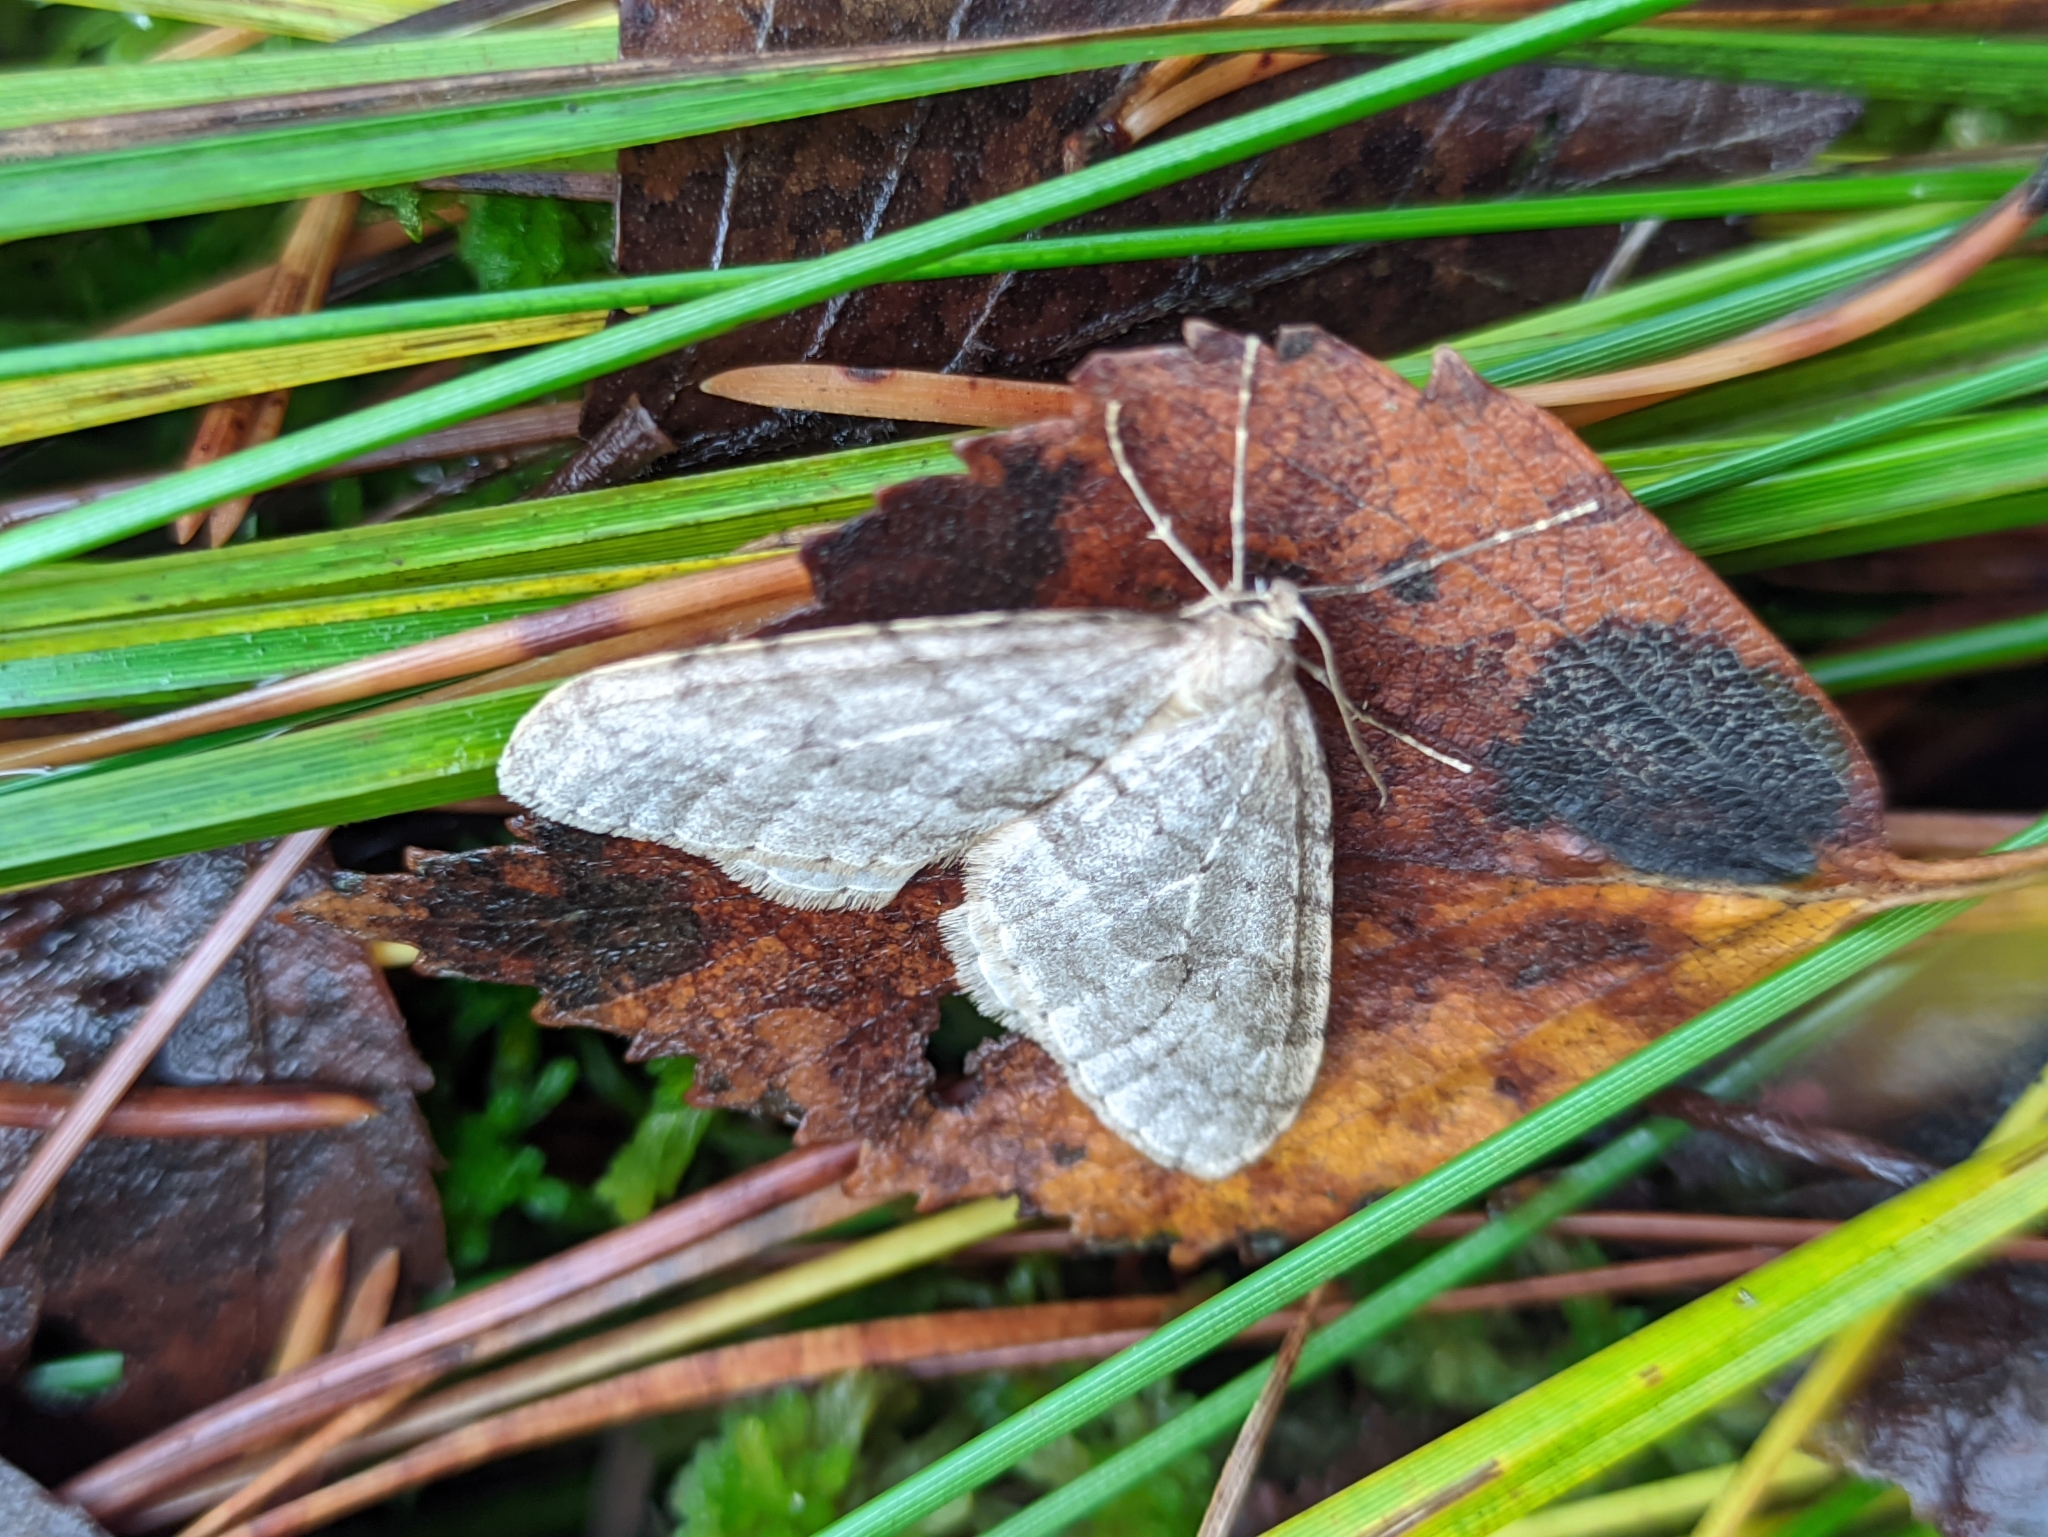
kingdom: Animalia
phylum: Arthropoda
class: Insecta
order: Lepidoptera
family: Geometridae
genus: Operophtera
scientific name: Operophtera fagata
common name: Northern winter moth
